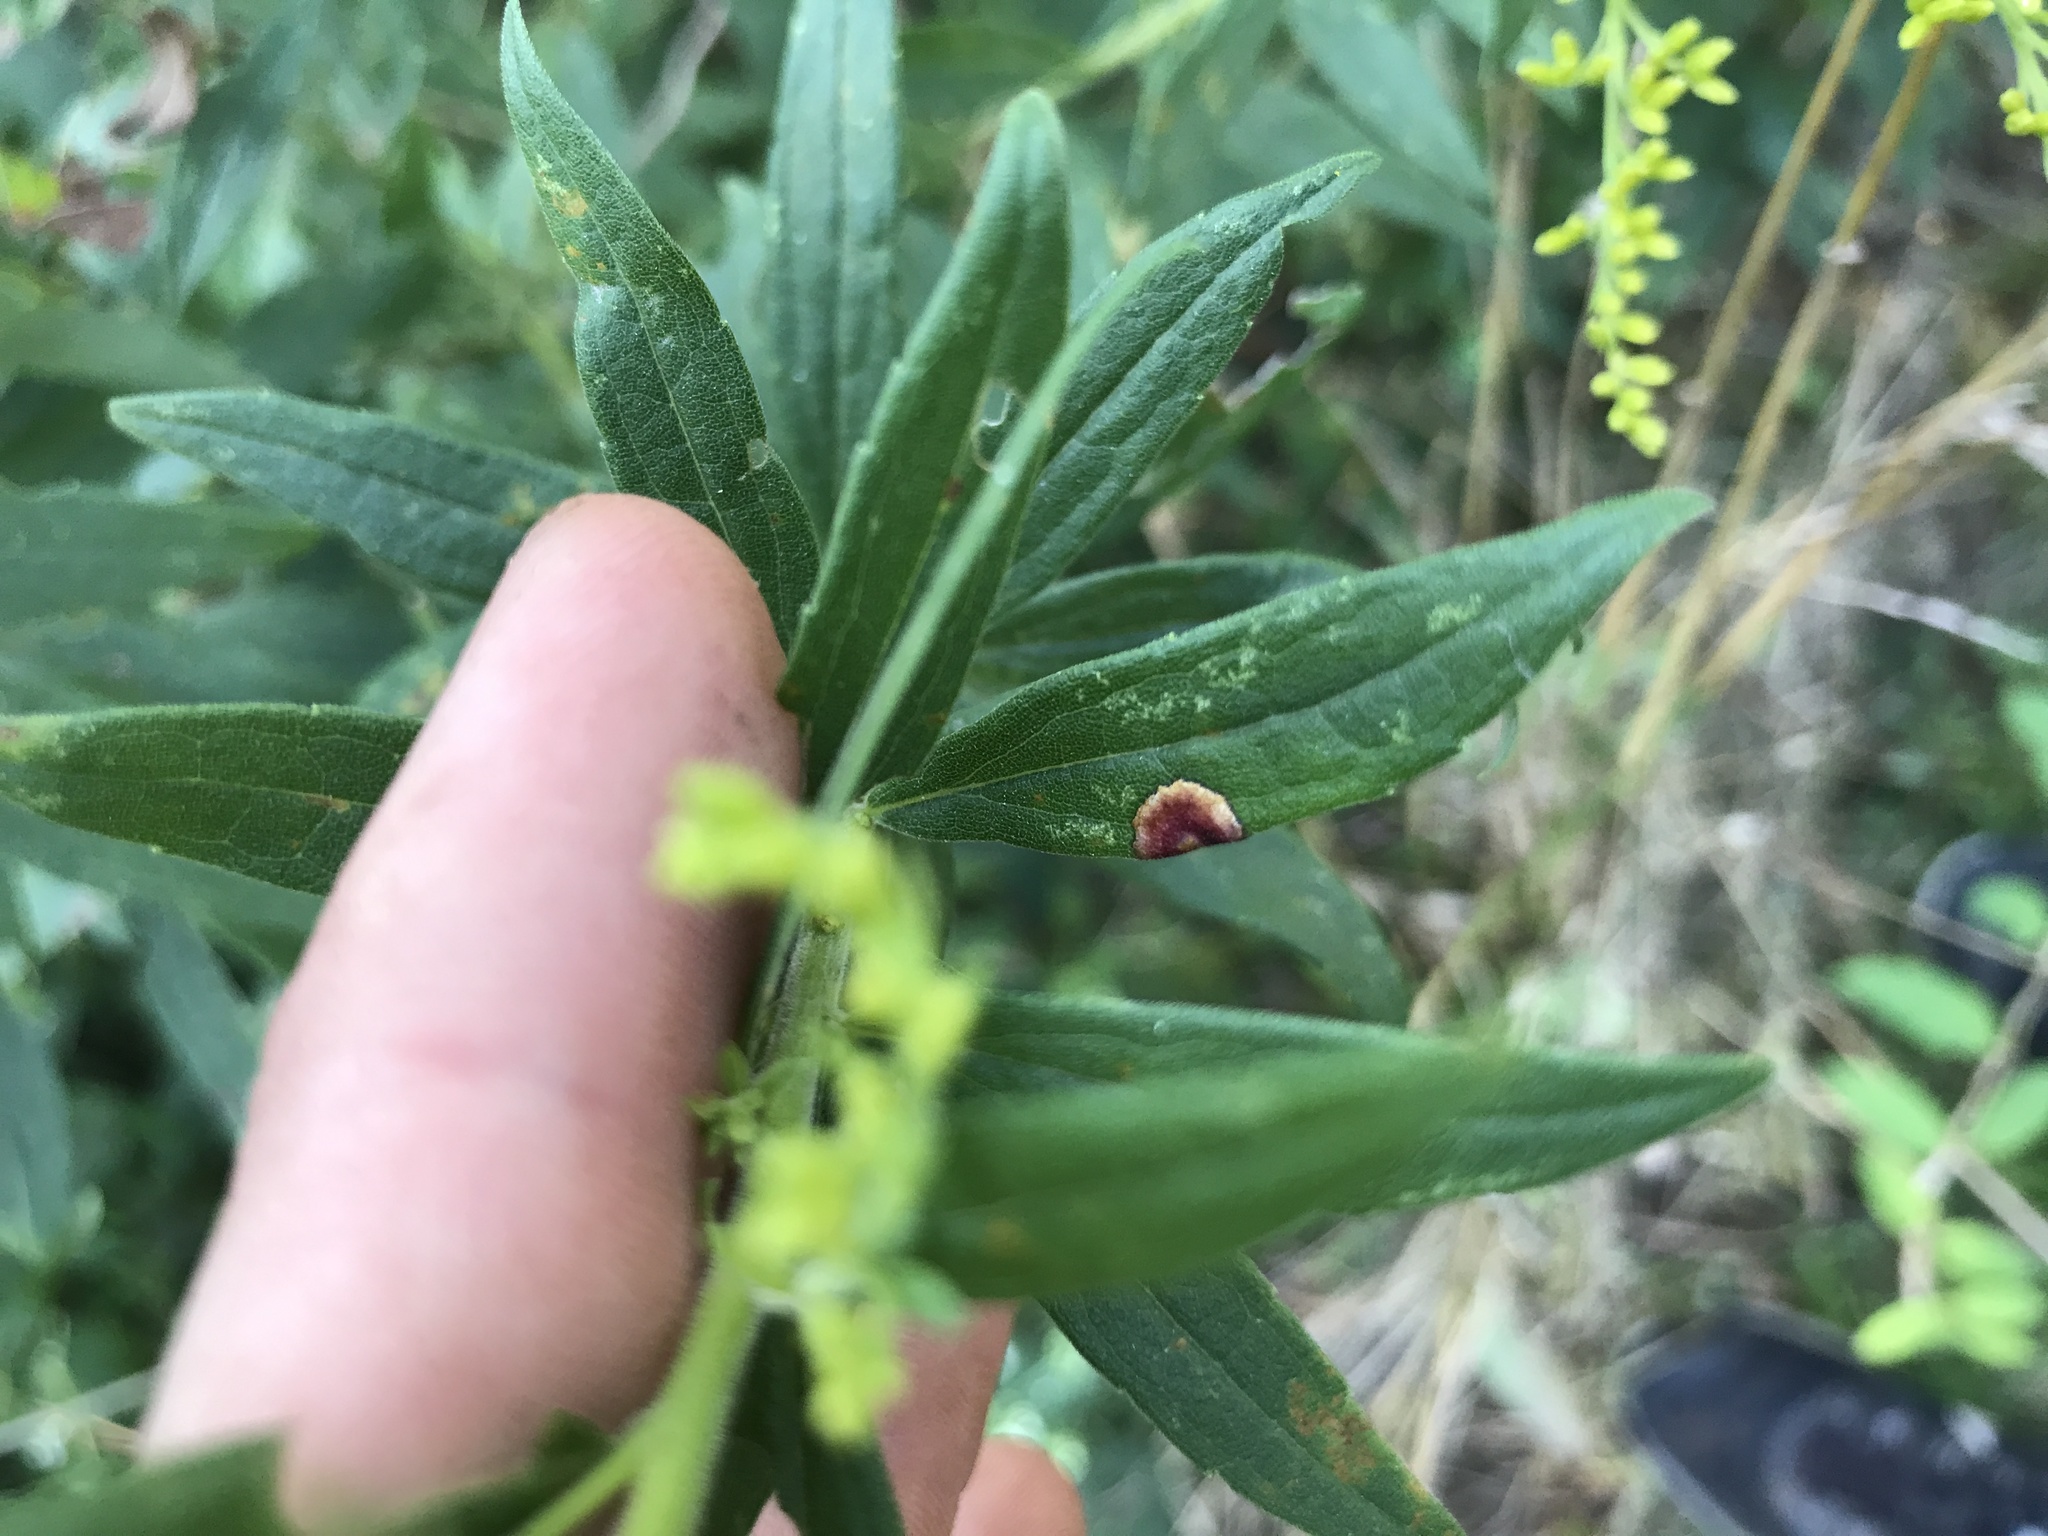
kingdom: Animalia
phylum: Arthropoda
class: Insecta
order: Diptera
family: Cecidomyiidae
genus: Asteromyia
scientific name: Asteromyia carbonifera
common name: Carbonifera goldenrod gall midge
